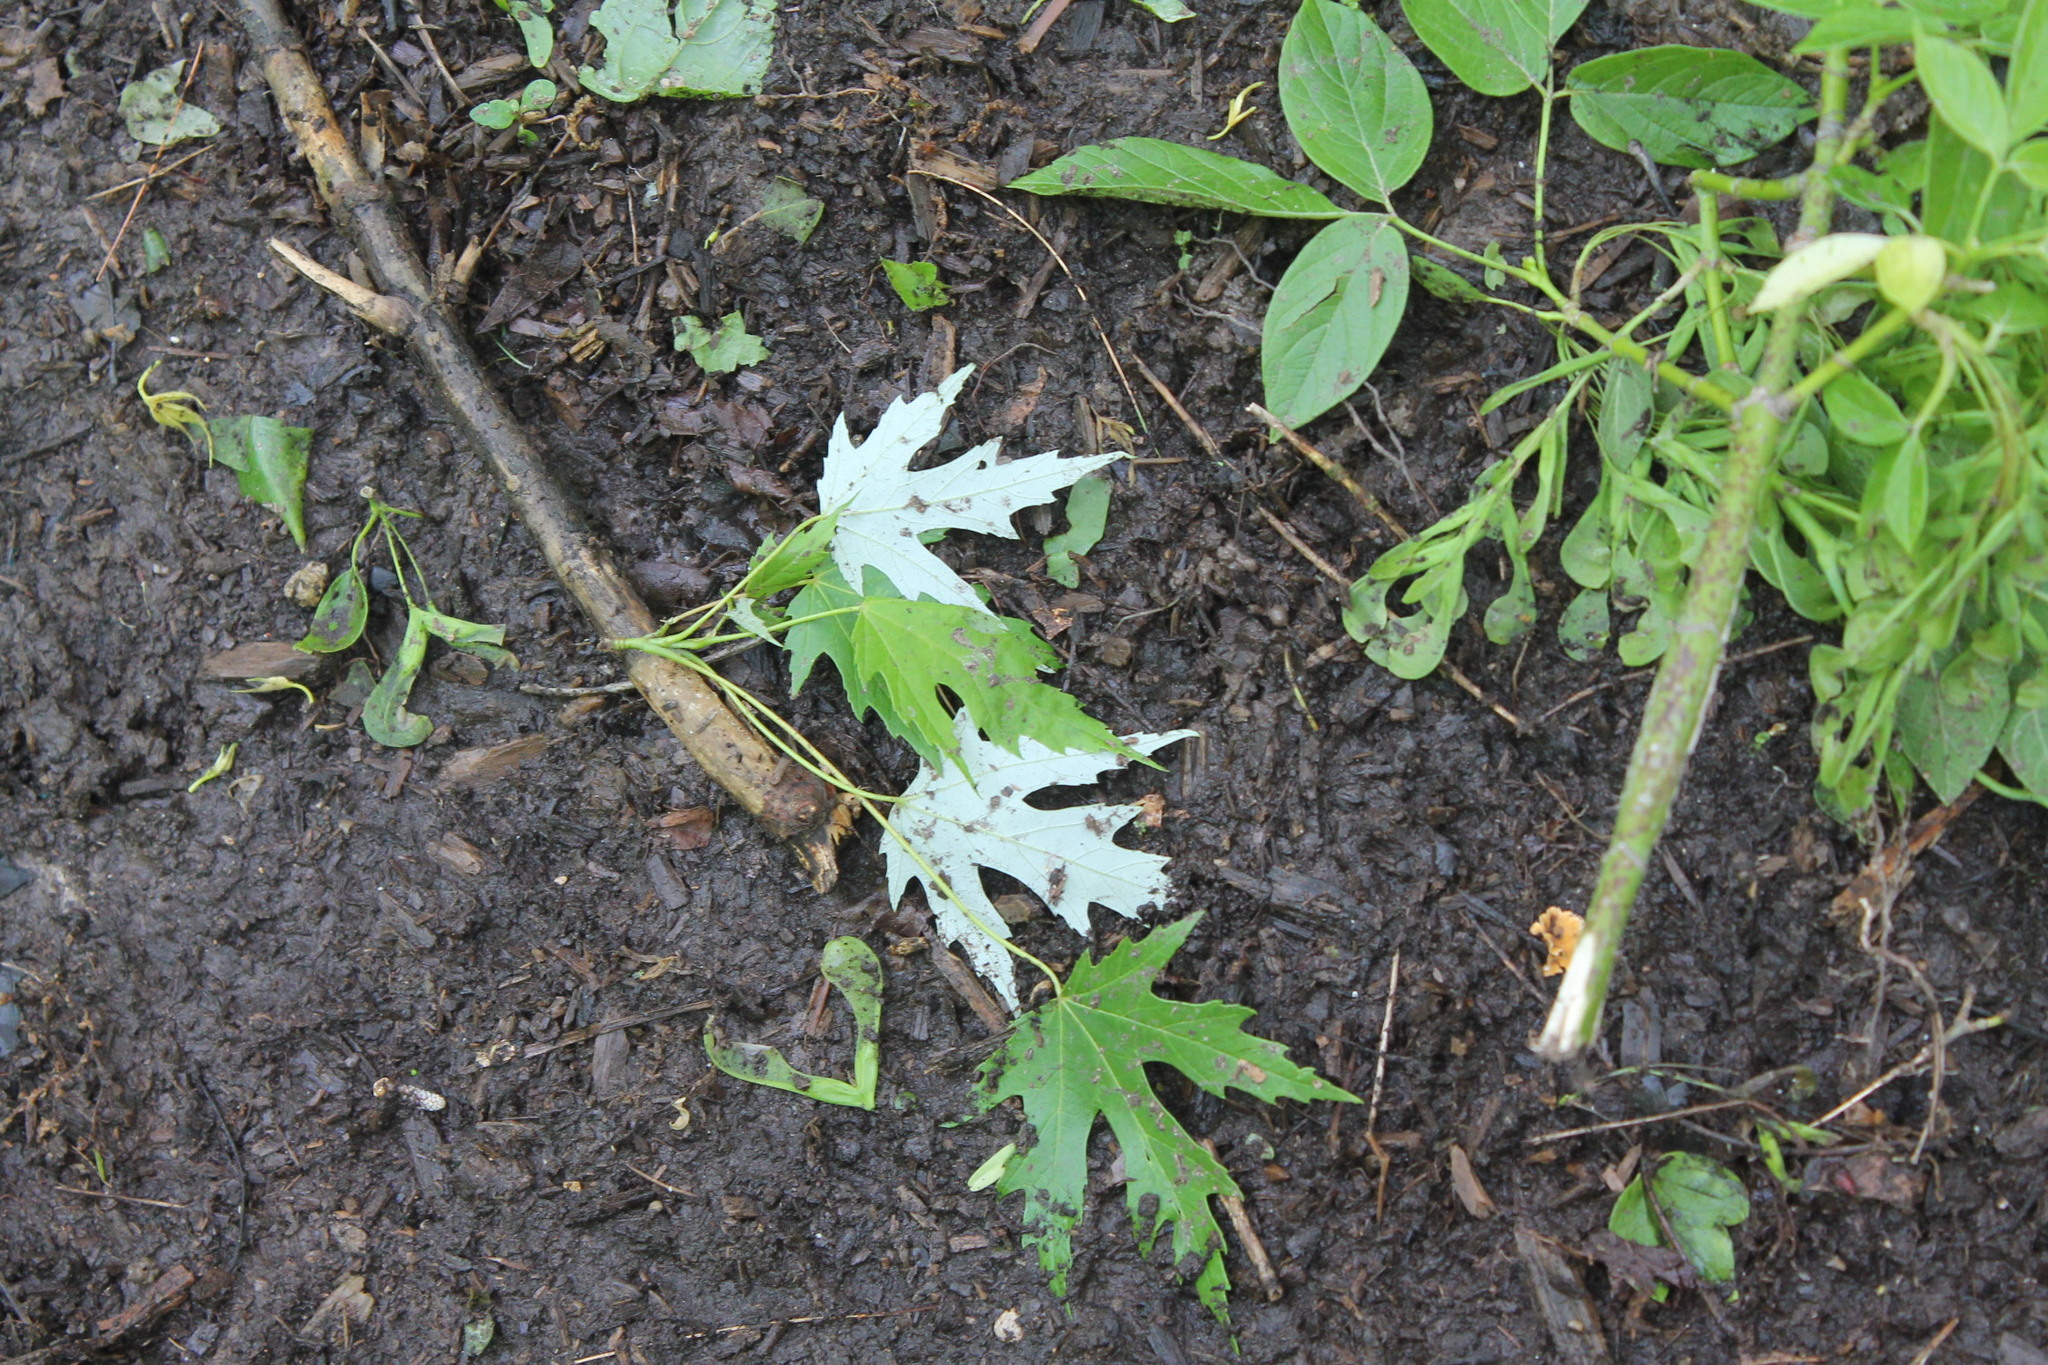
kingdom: Plantae
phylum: Tracheophyta
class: Magnoliopsida
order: Sapindales
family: Sapindaceae
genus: Acer
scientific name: Acer saccharinum
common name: Silver maple
